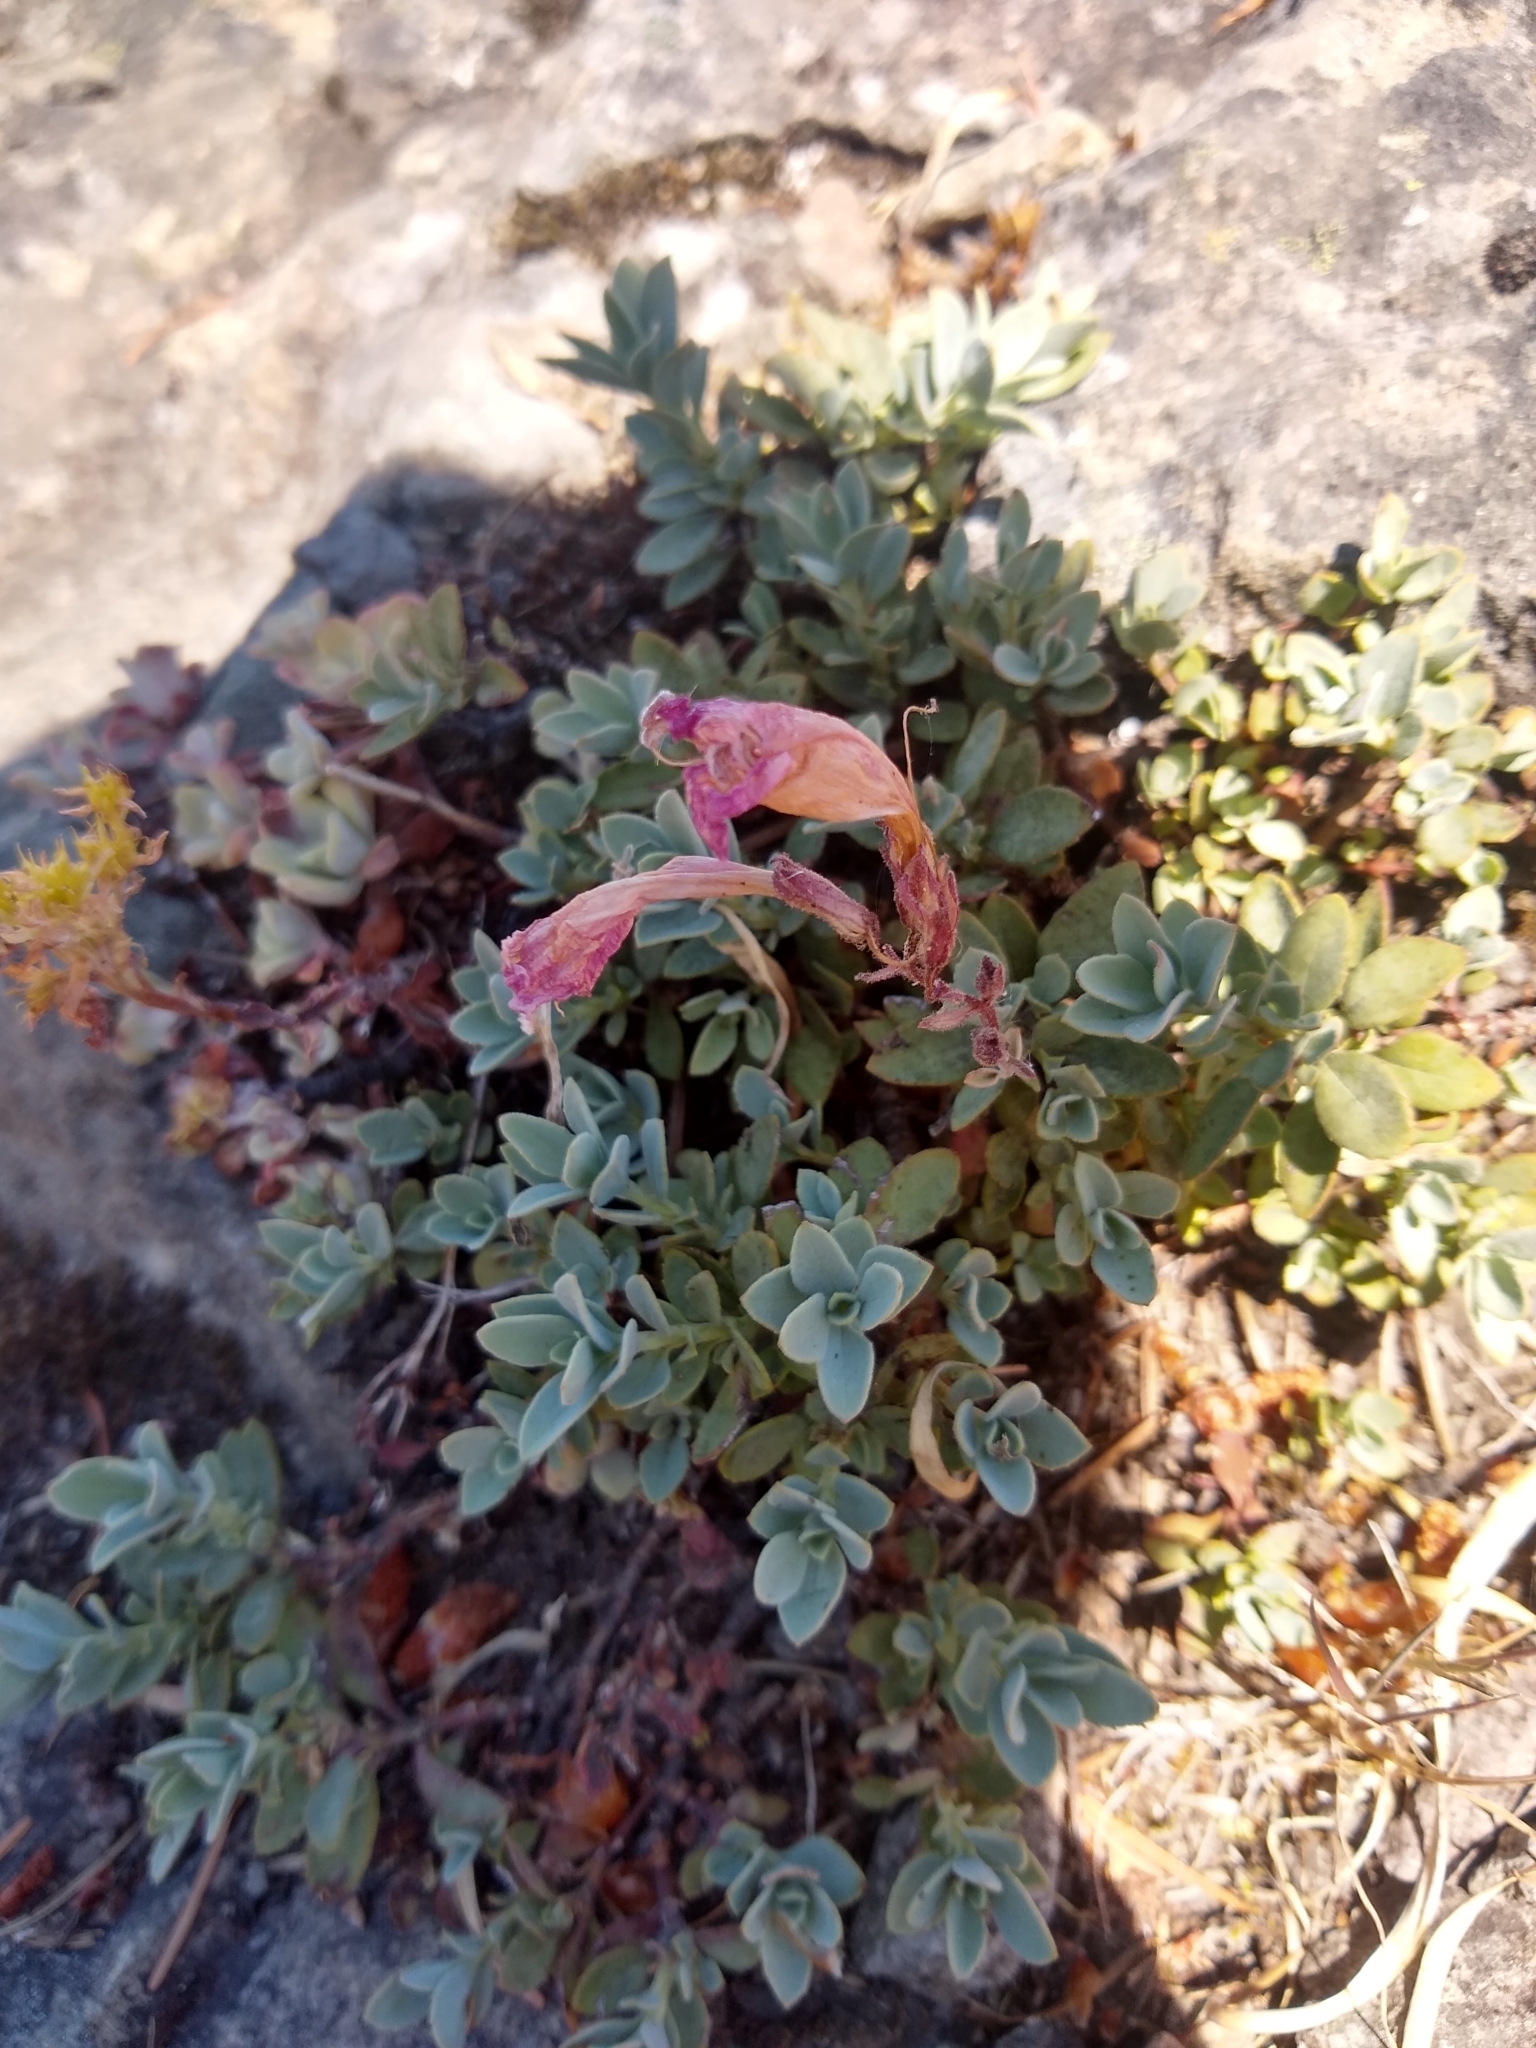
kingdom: Plantae
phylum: Tracheophyta
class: Magnoliopsida
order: Lamiales
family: Plantaginaceae
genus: Penstemon
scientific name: Penstemon rupicola
